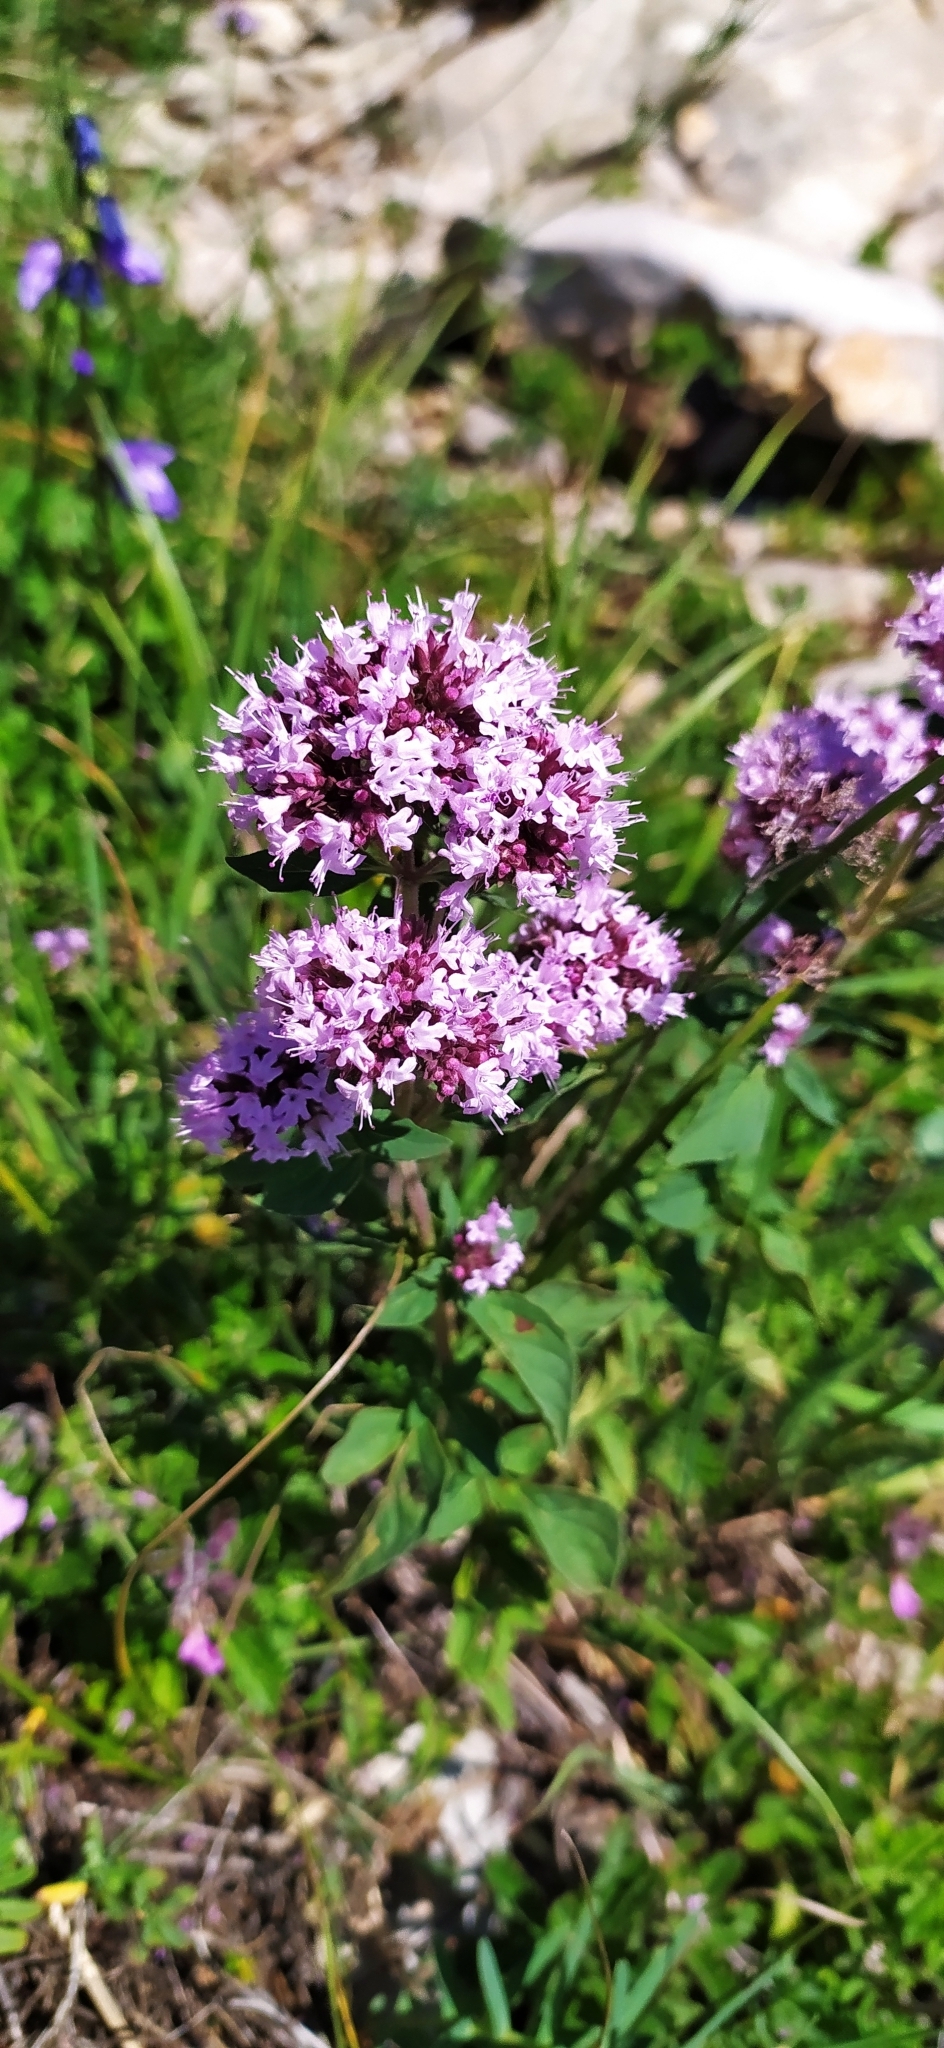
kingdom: Plantae
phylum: Tracheophyta
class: Magnoliopsida
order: Lamiales
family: Lamiaceae
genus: Origanum
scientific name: Origanum vulgare
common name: Wild marjoram
